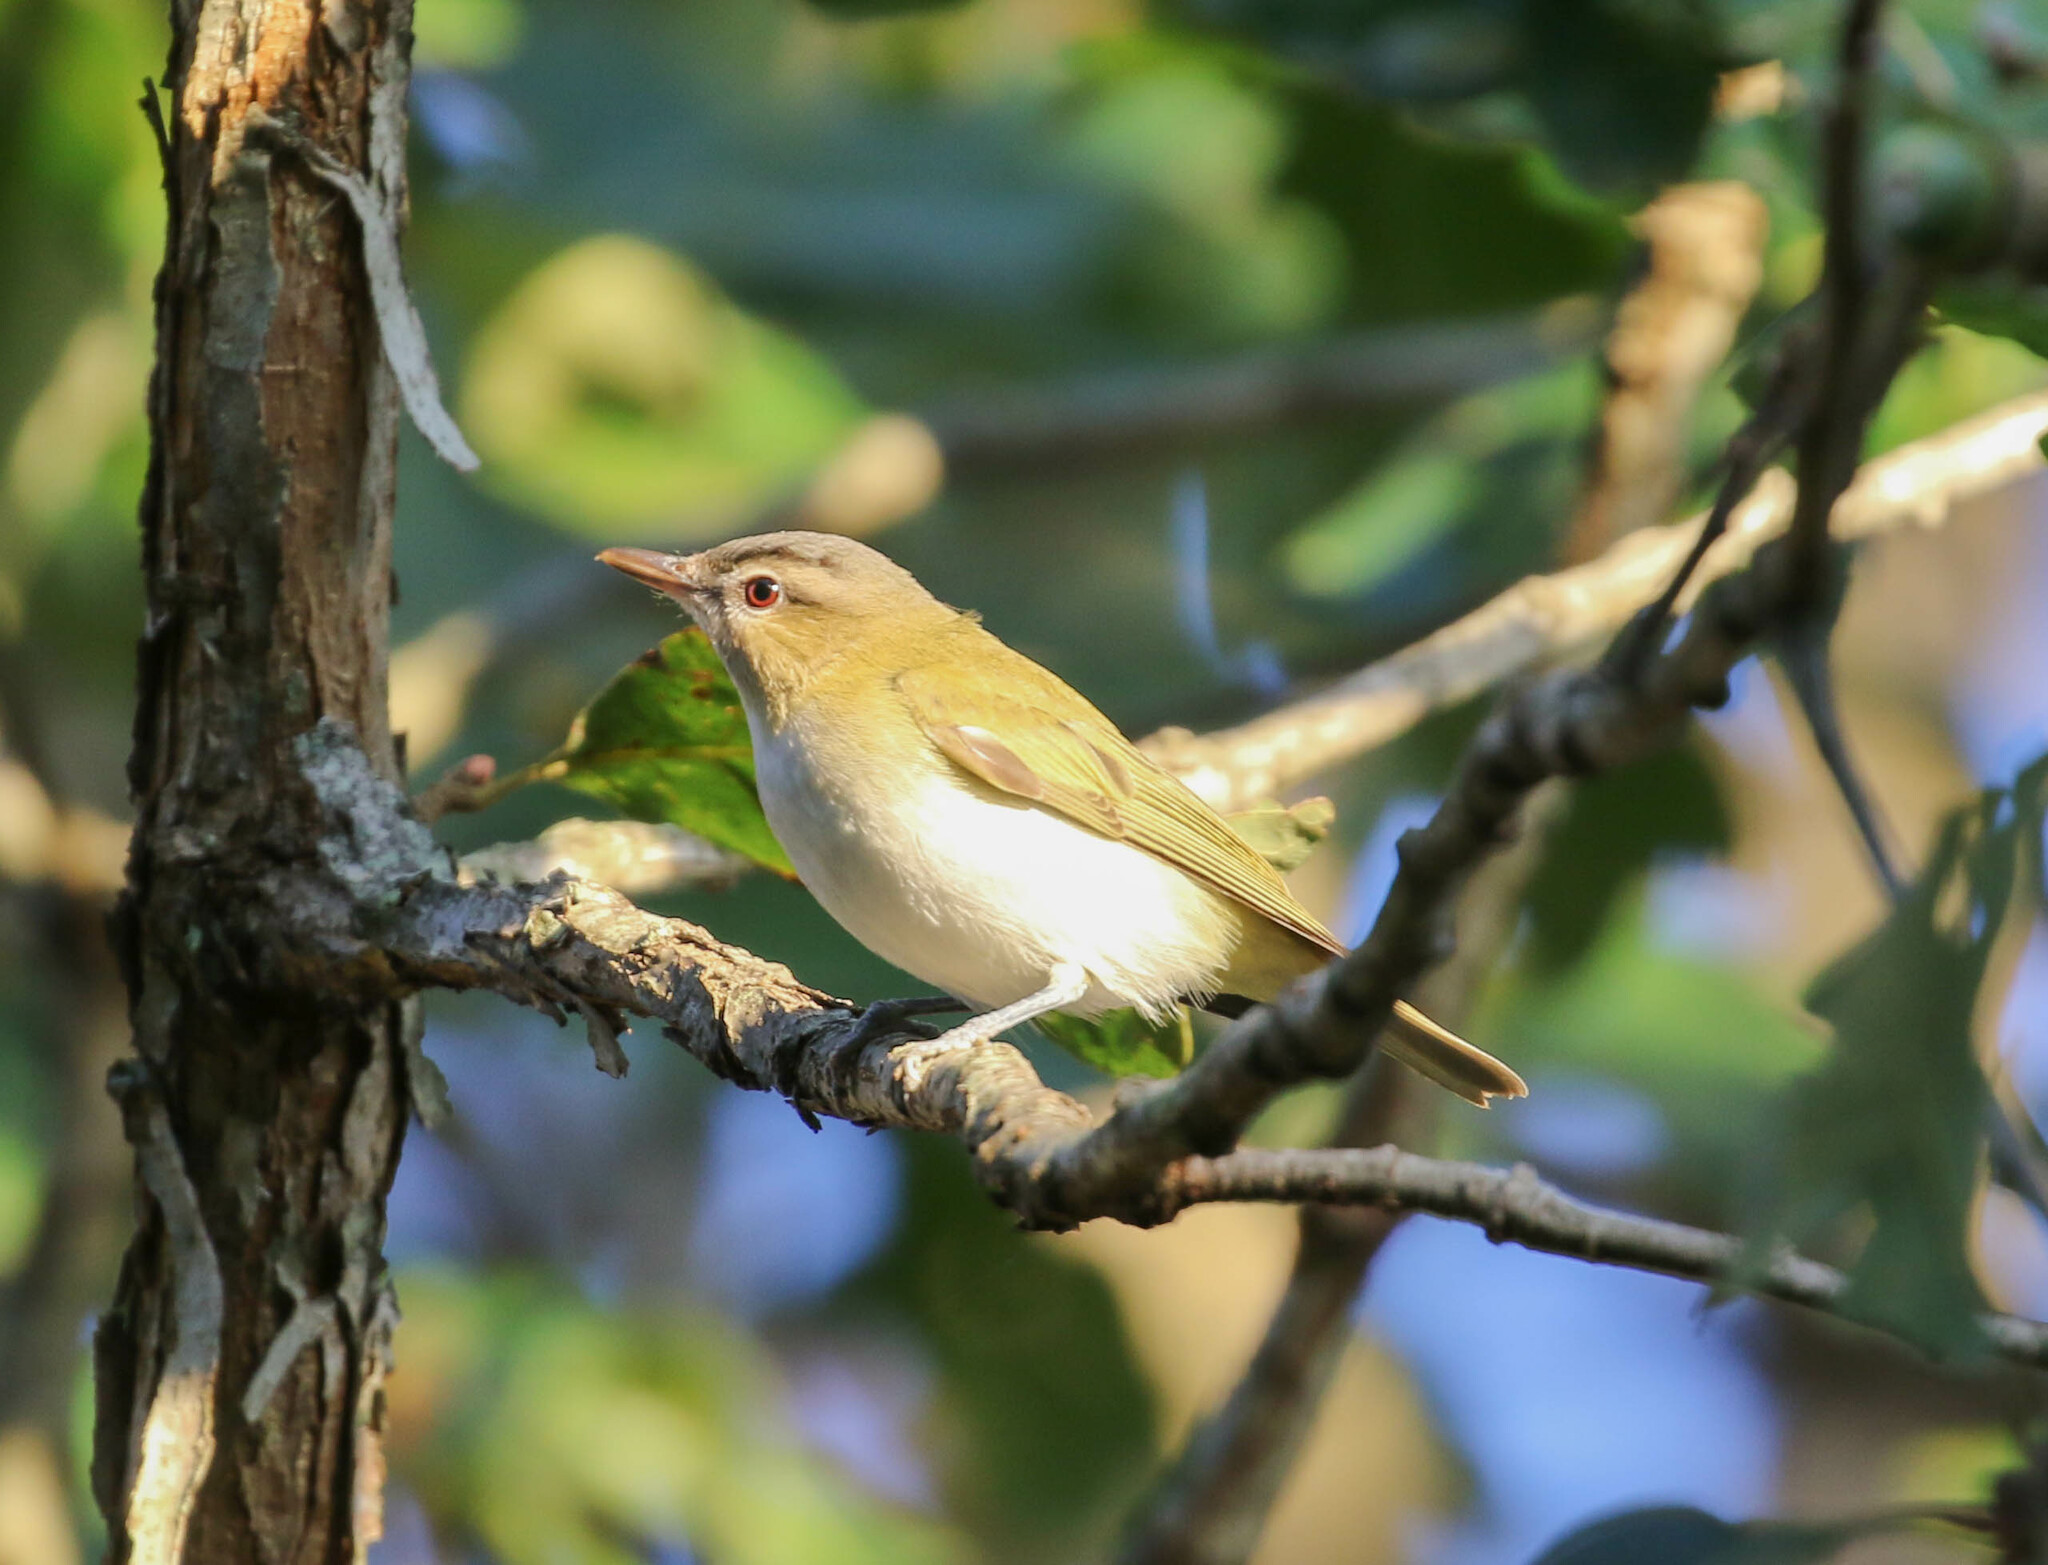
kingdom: Animalia
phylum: Chordata
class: Aves
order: Passeriformes
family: Vireonidae
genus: Vireo
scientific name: Vireo olivaceus
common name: Red-eyed vireo
